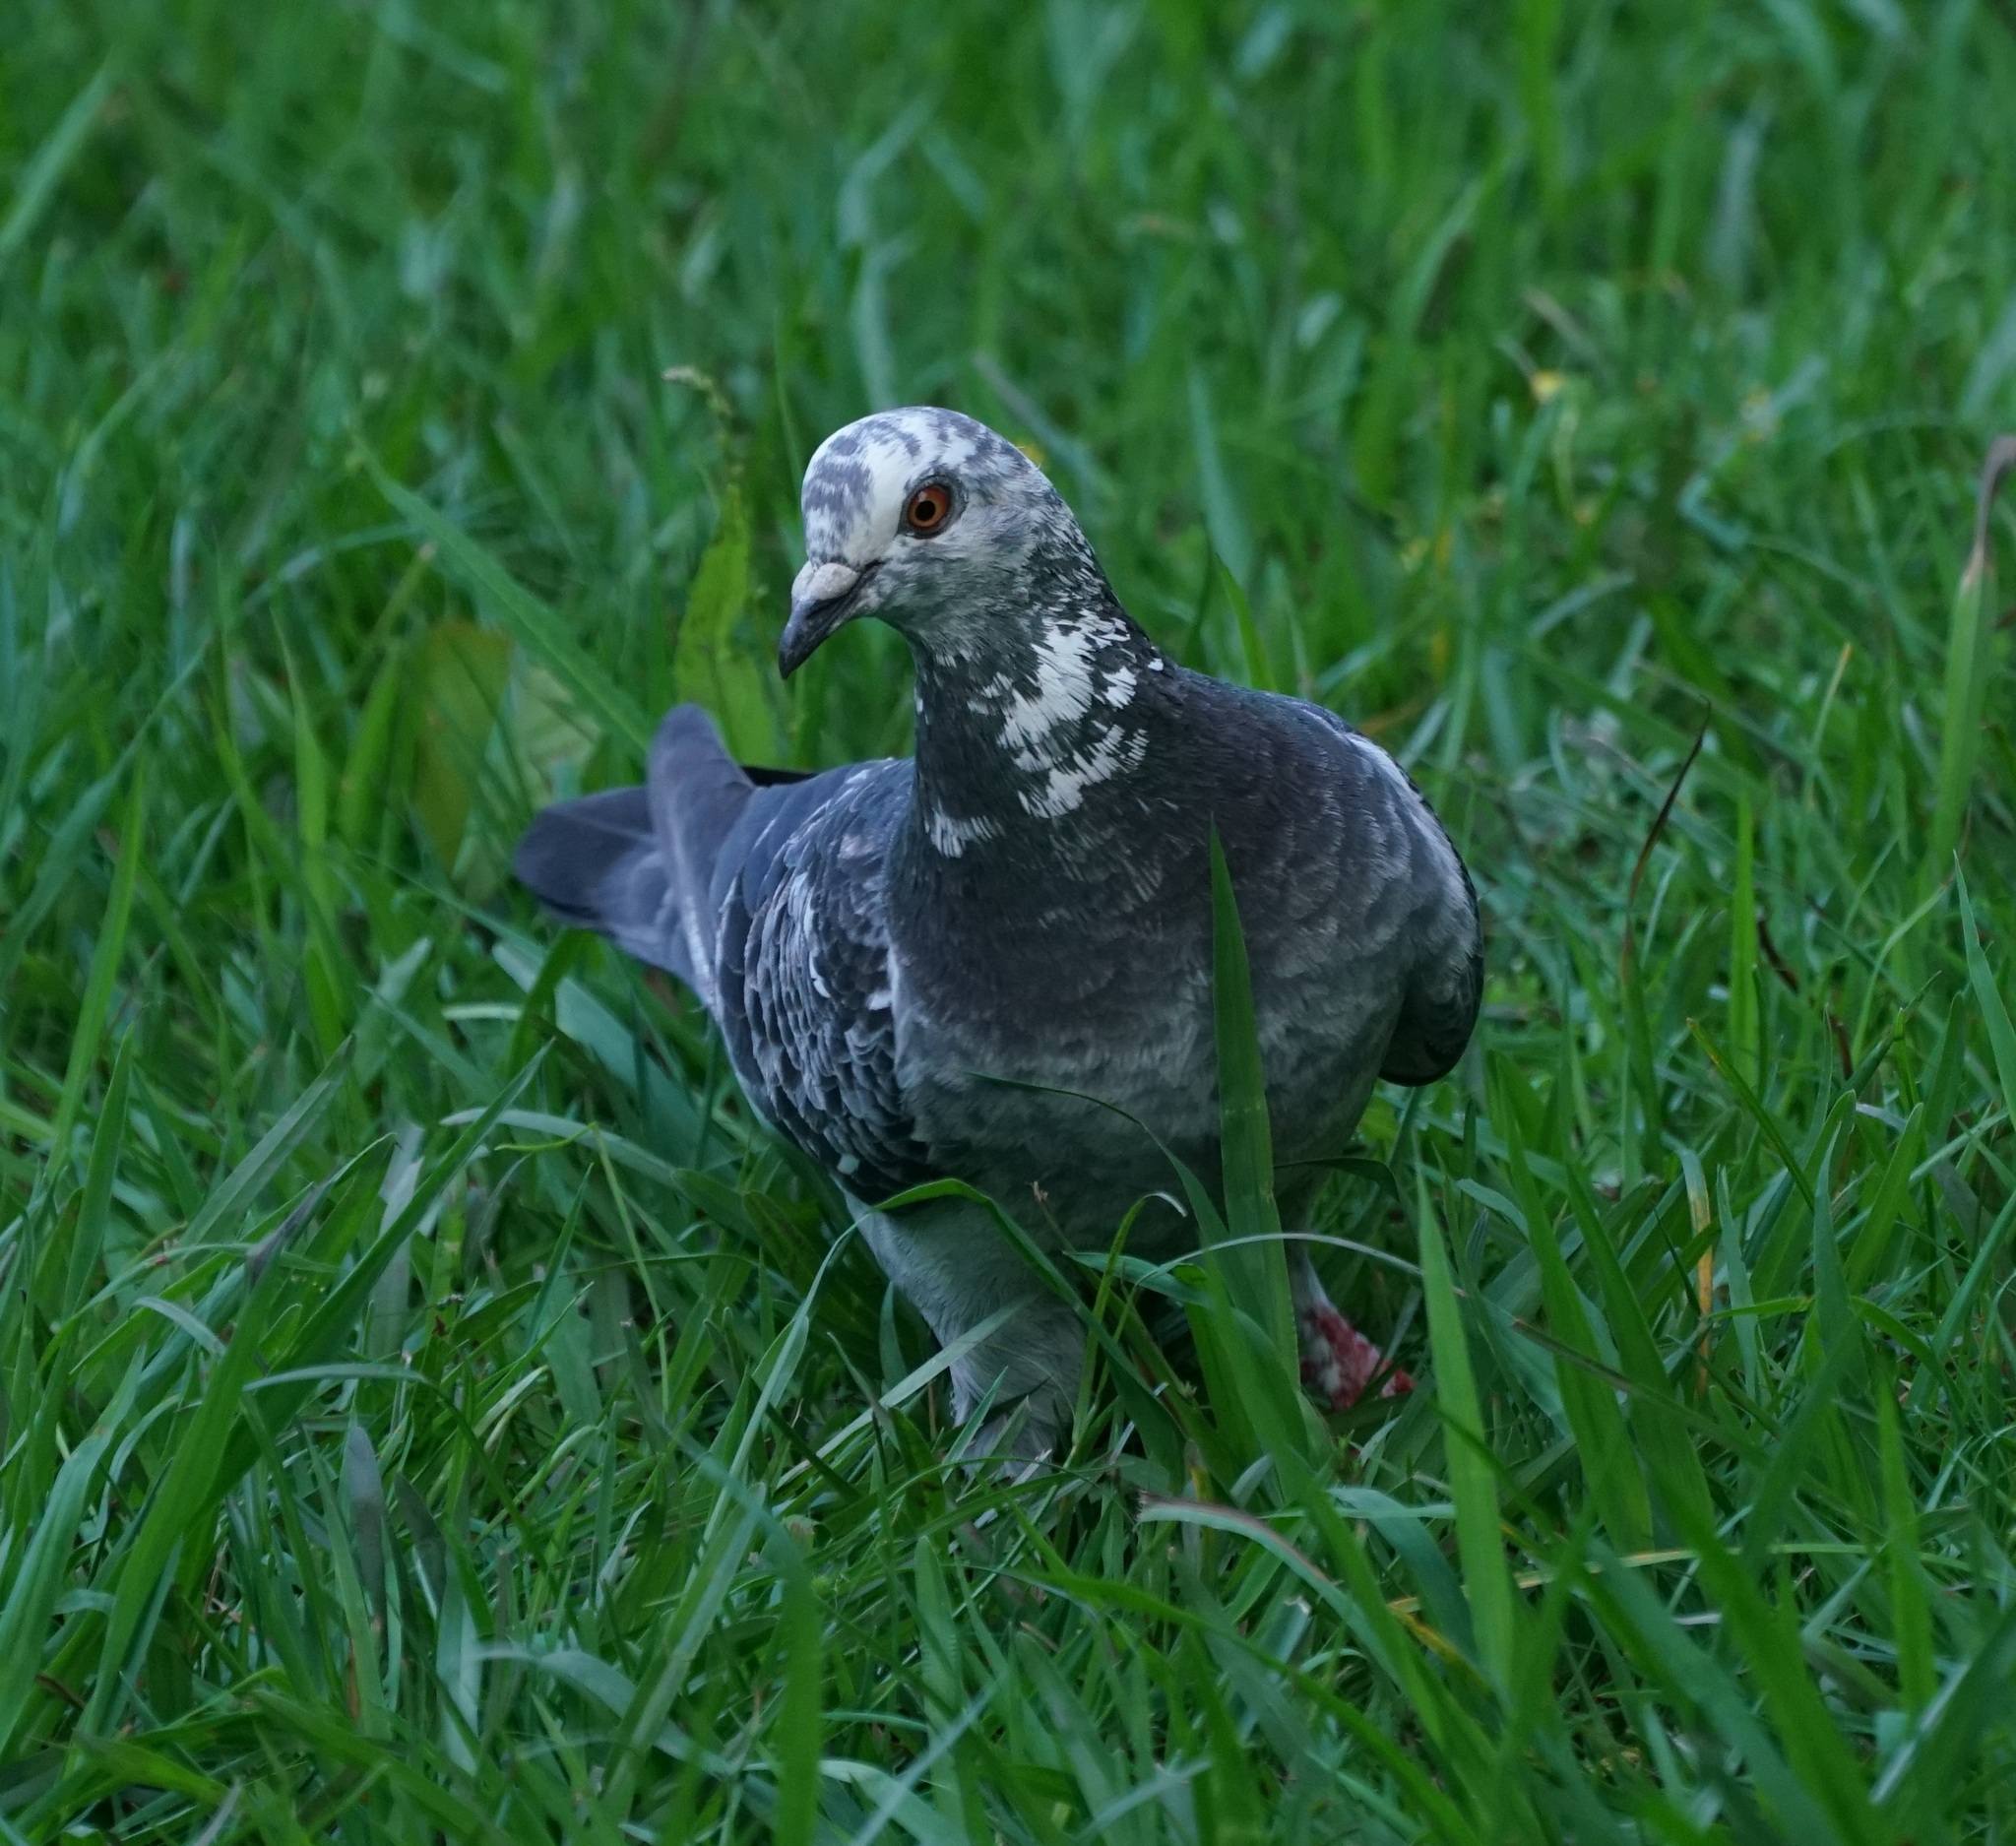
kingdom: Animalia
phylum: Chordata
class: Aves
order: Columbiformes
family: Columbidae
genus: Columba
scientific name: Columba livia
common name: Rock pigeon
